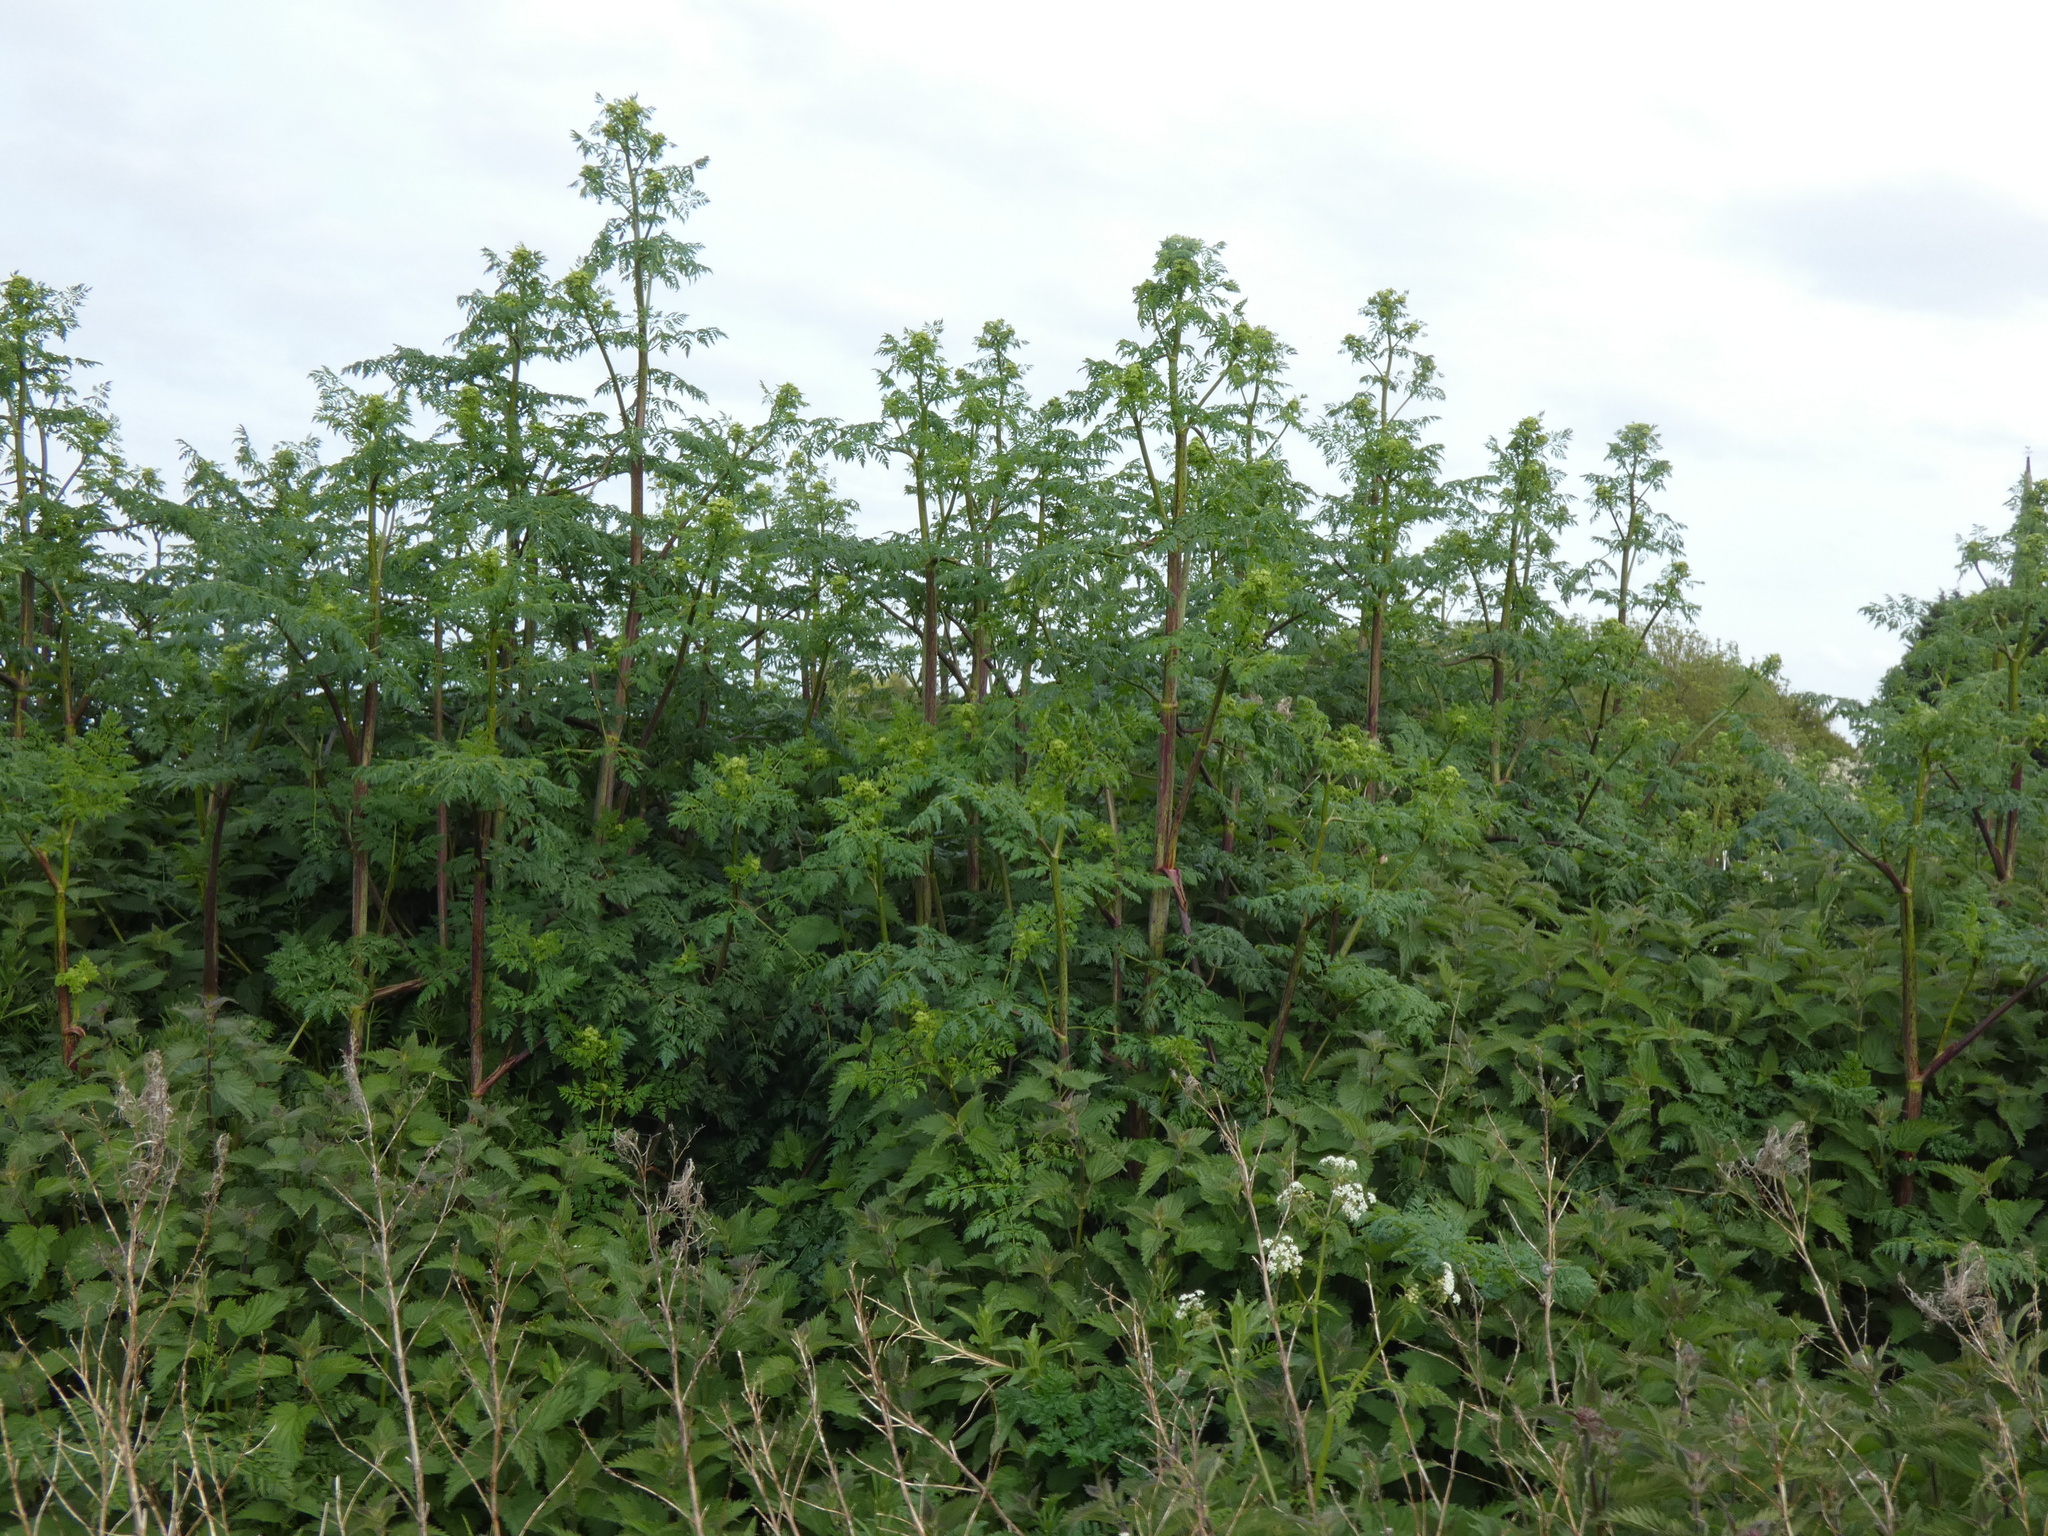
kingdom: Plantae
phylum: Tracheophyta
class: Magnoliopsida
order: Apiales
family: Apiaceae
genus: Conium
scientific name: Conium maculatum
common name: Hemlock
